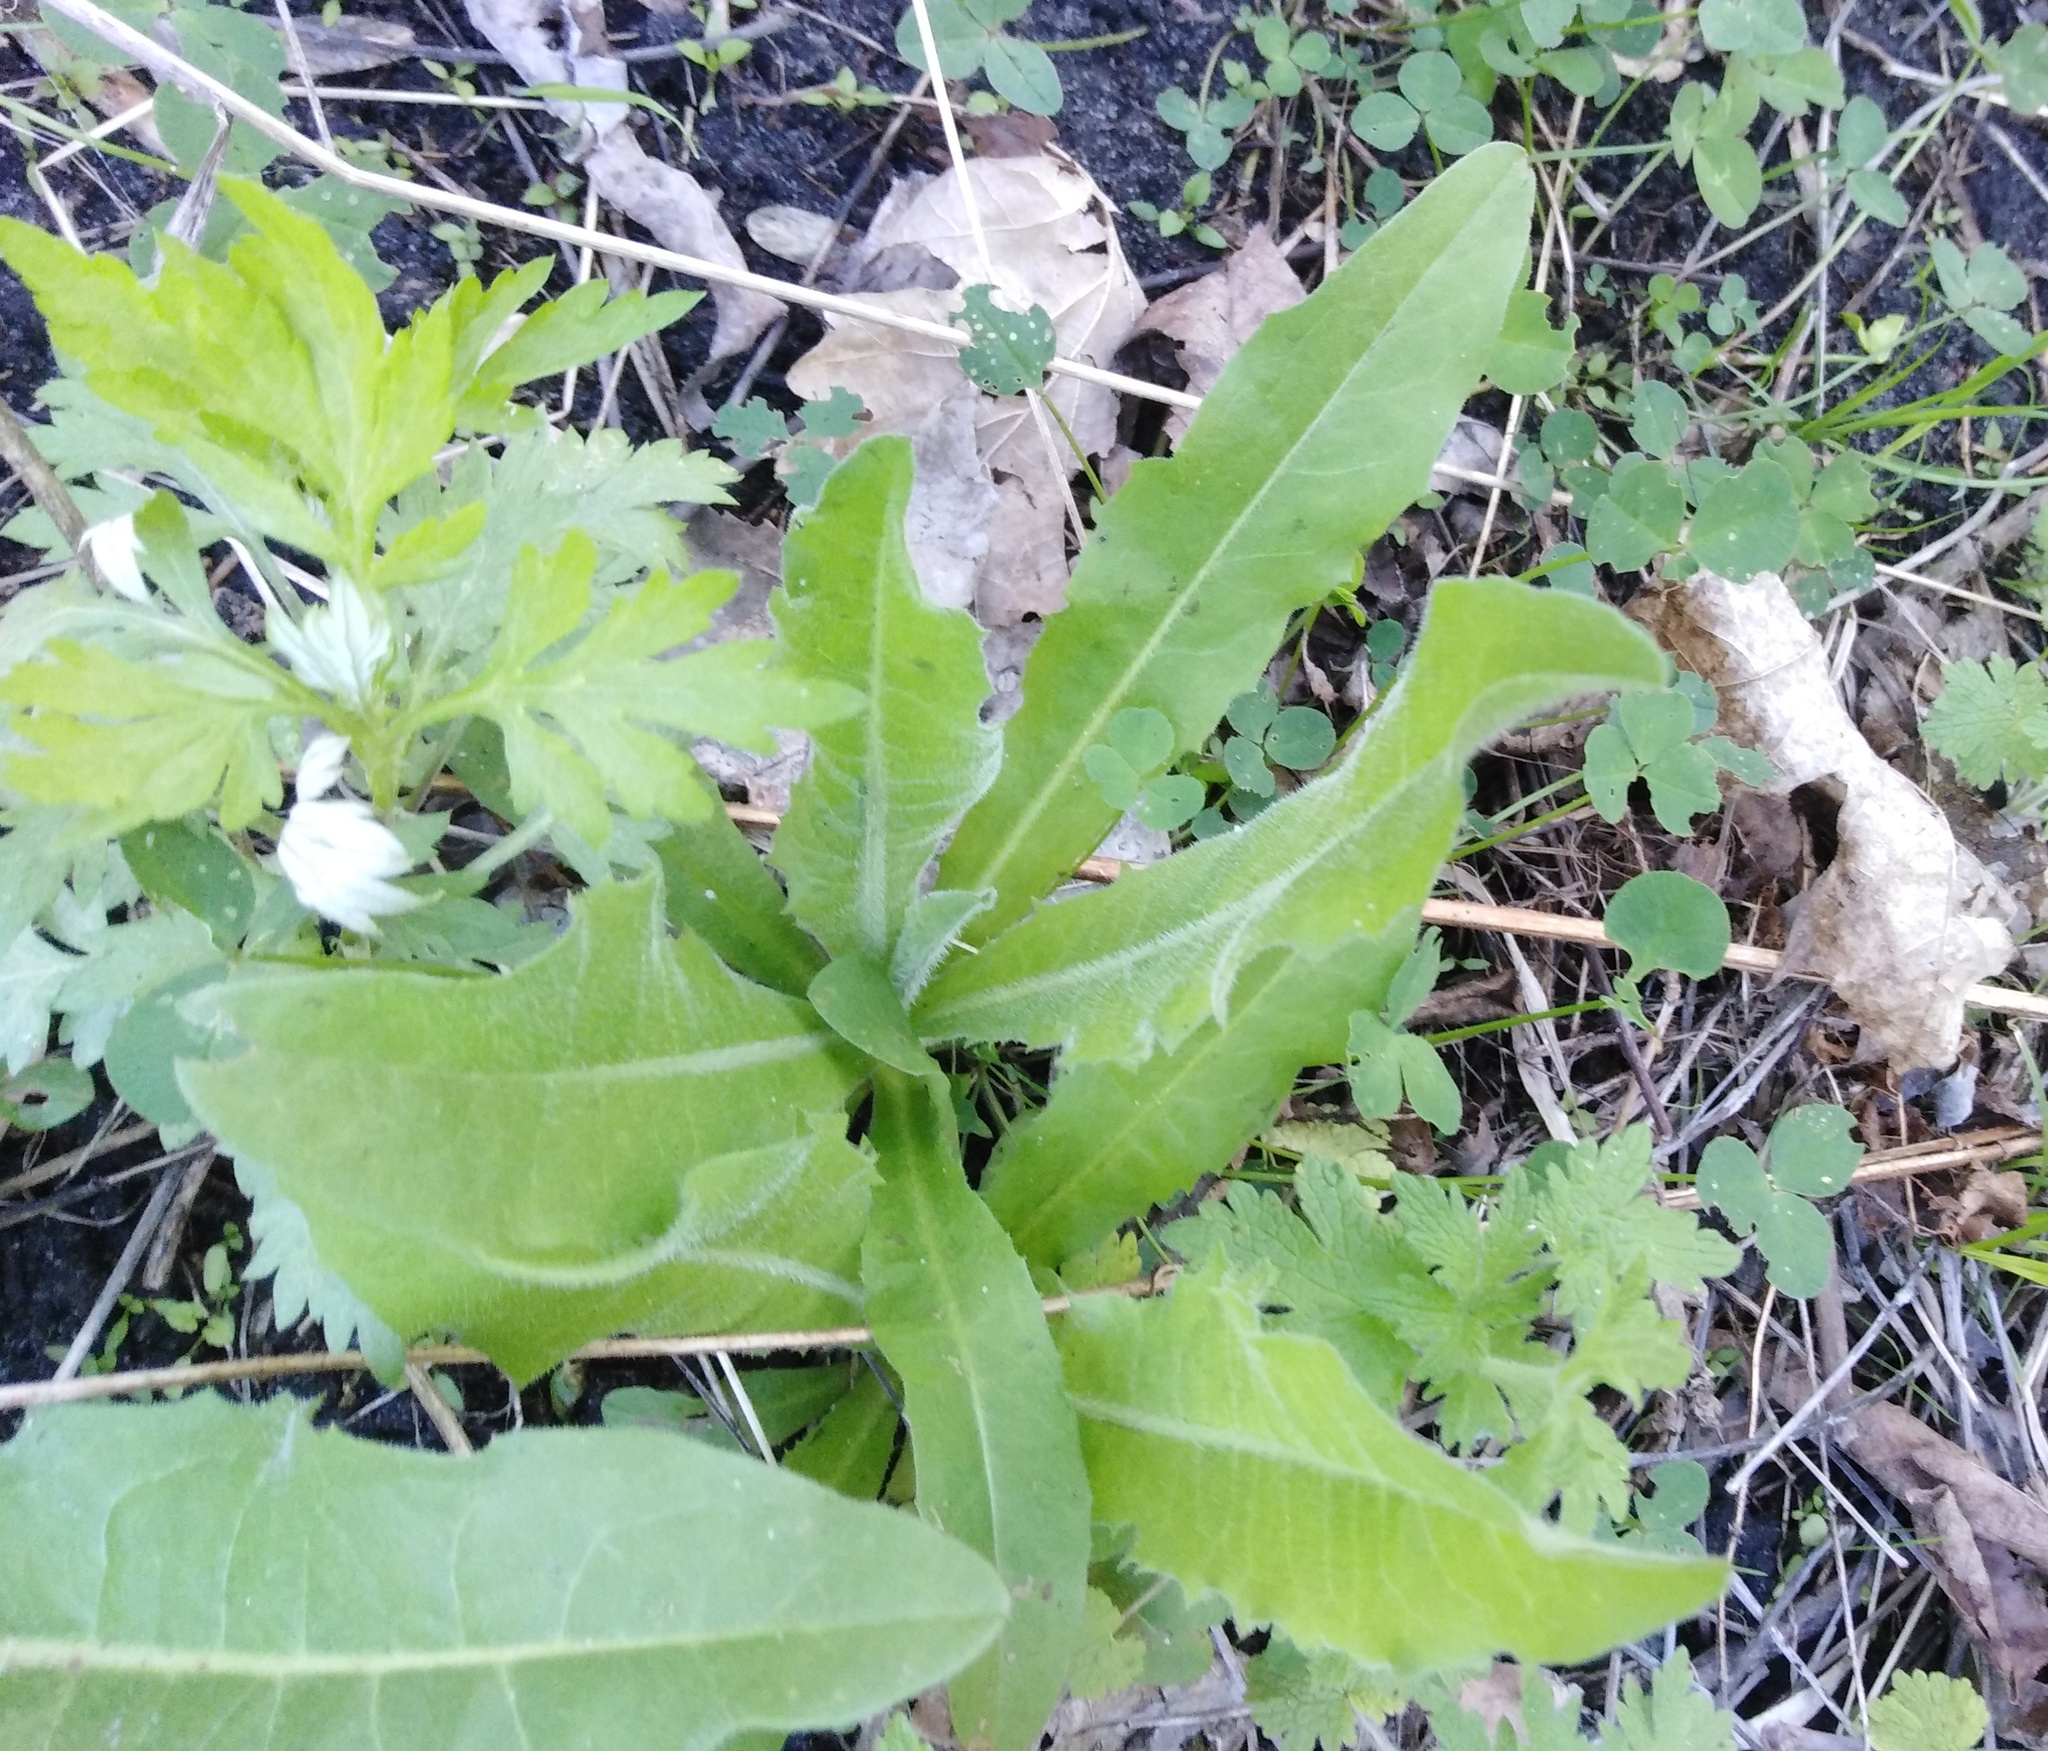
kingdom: Plantae
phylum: Tracheophyta
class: Magnoliopsida
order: Asterales
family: Asteraceae
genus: Cichorium
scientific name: Cichorium intybus
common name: Chicory
